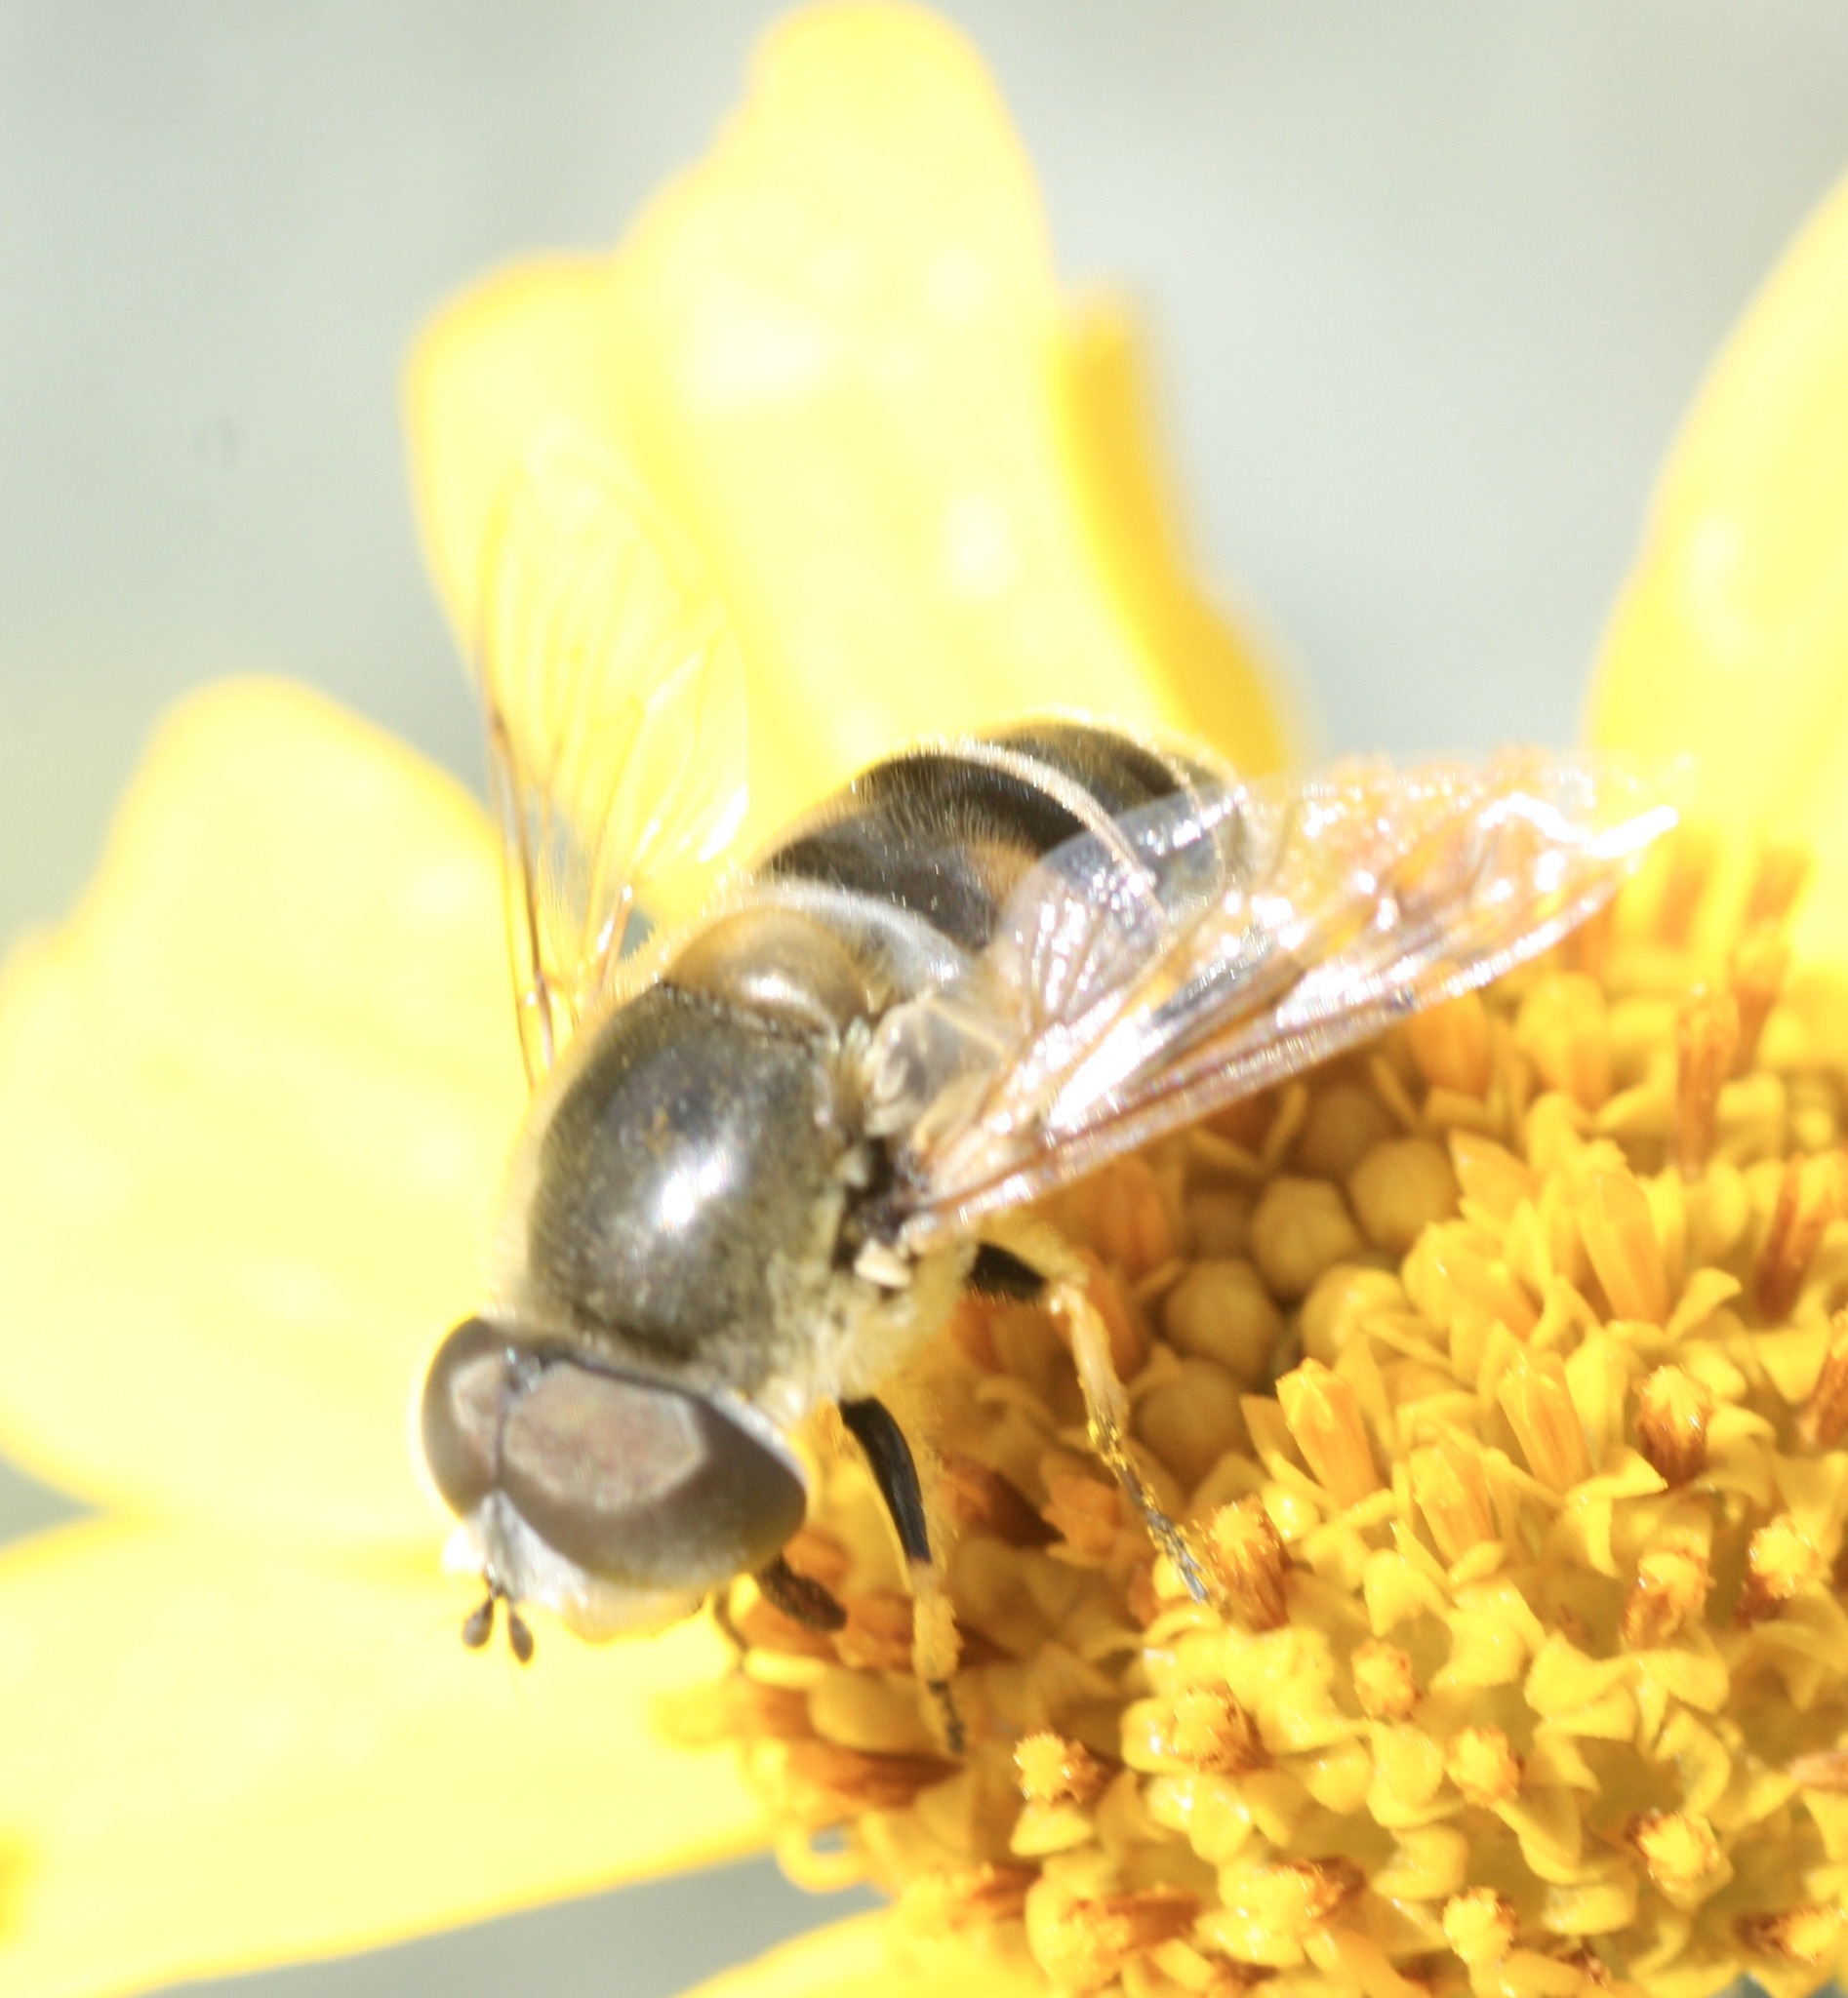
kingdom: Animalia
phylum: Arthropoda
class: Insecta
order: Diptera
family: Syrphidae
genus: Eristalis
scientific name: Eristalis stipator
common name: Yellow-shouldered drone fly
